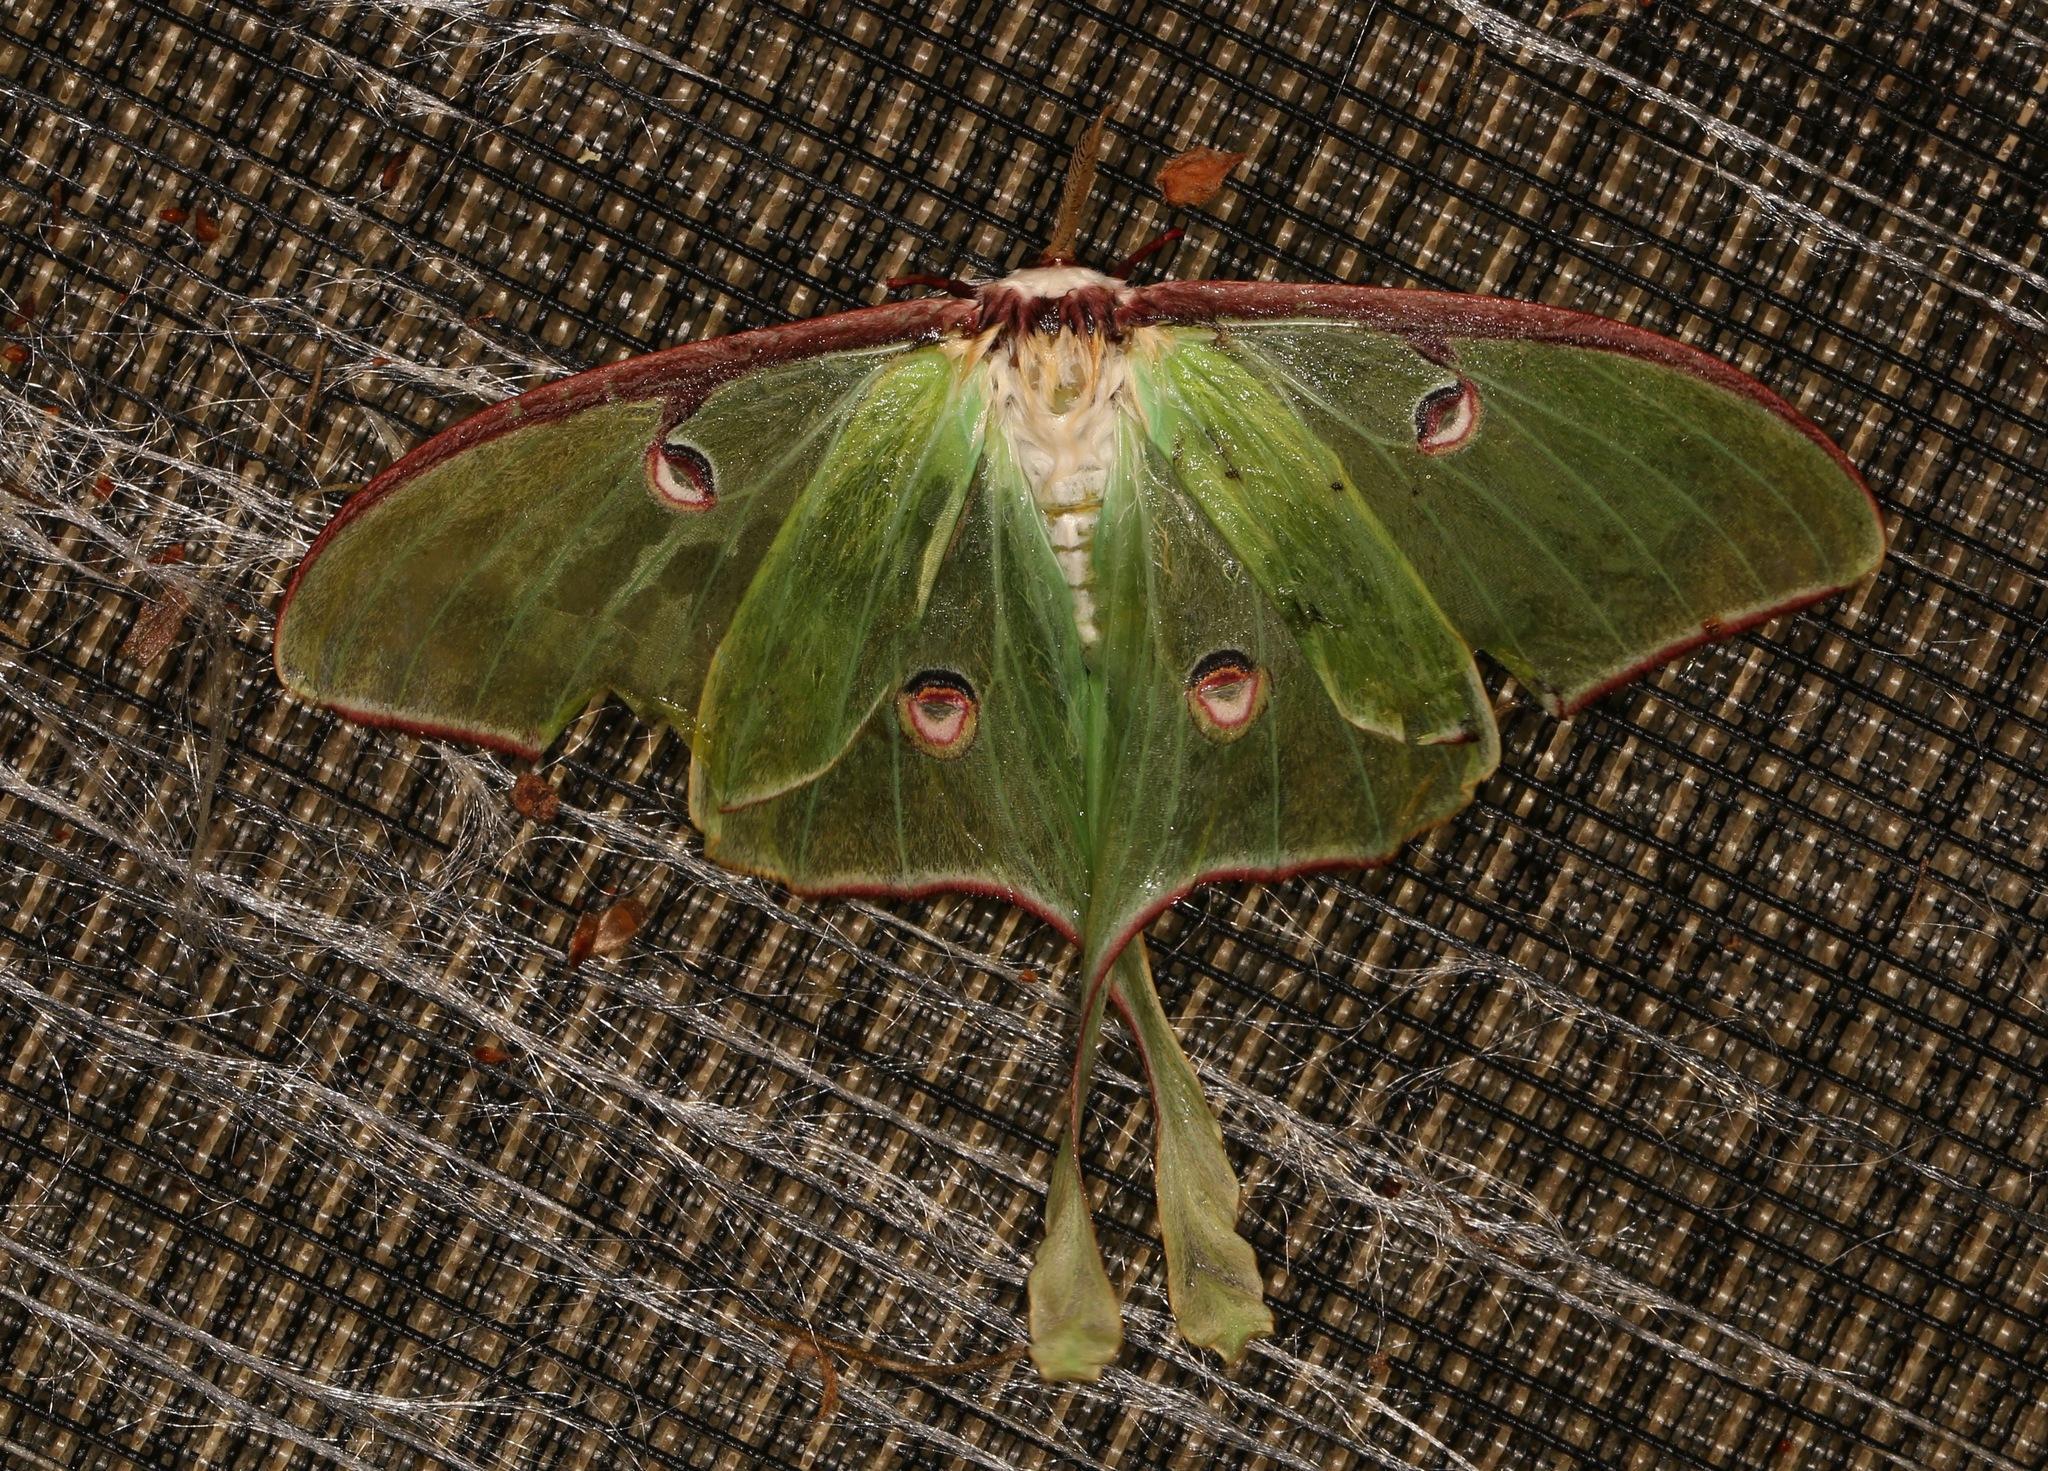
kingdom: Animalia
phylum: Arthropoda
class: Insecta
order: Lepidoptera
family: Saturniidae
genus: Actias
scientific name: Actias luna
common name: Luna moth
